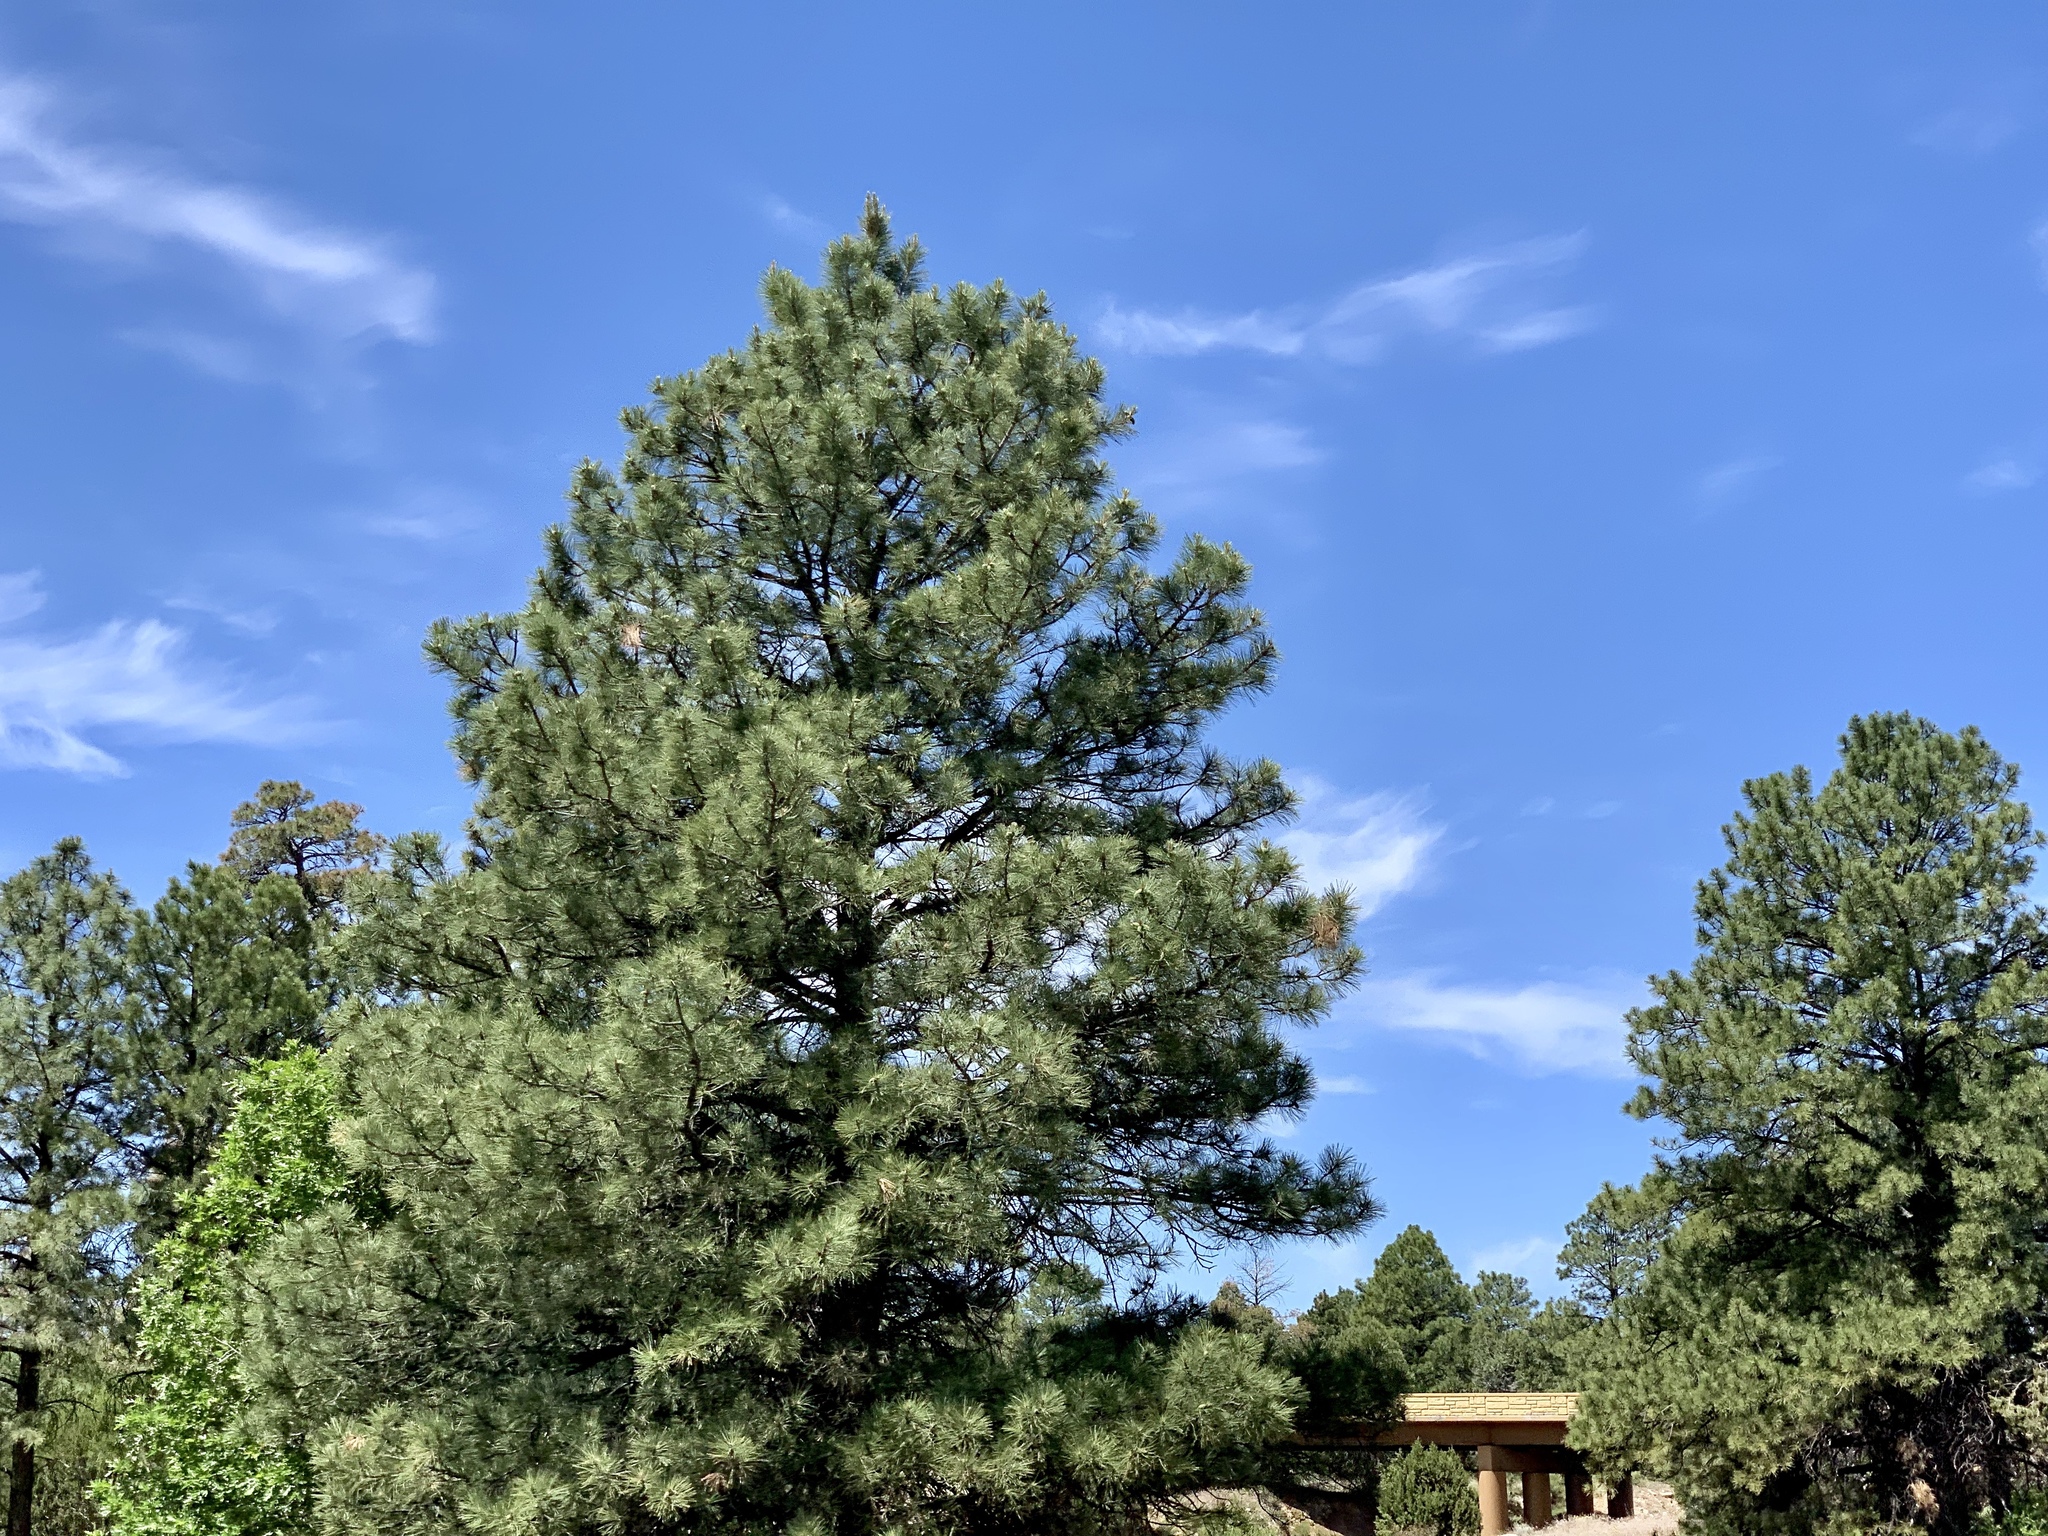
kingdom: Plantae
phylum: Tracheophyta
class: Pinopsida
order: Pinales
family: Pinaceae
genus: Pinus
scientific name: Pinus ponderosa
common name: Western yellow-pine
